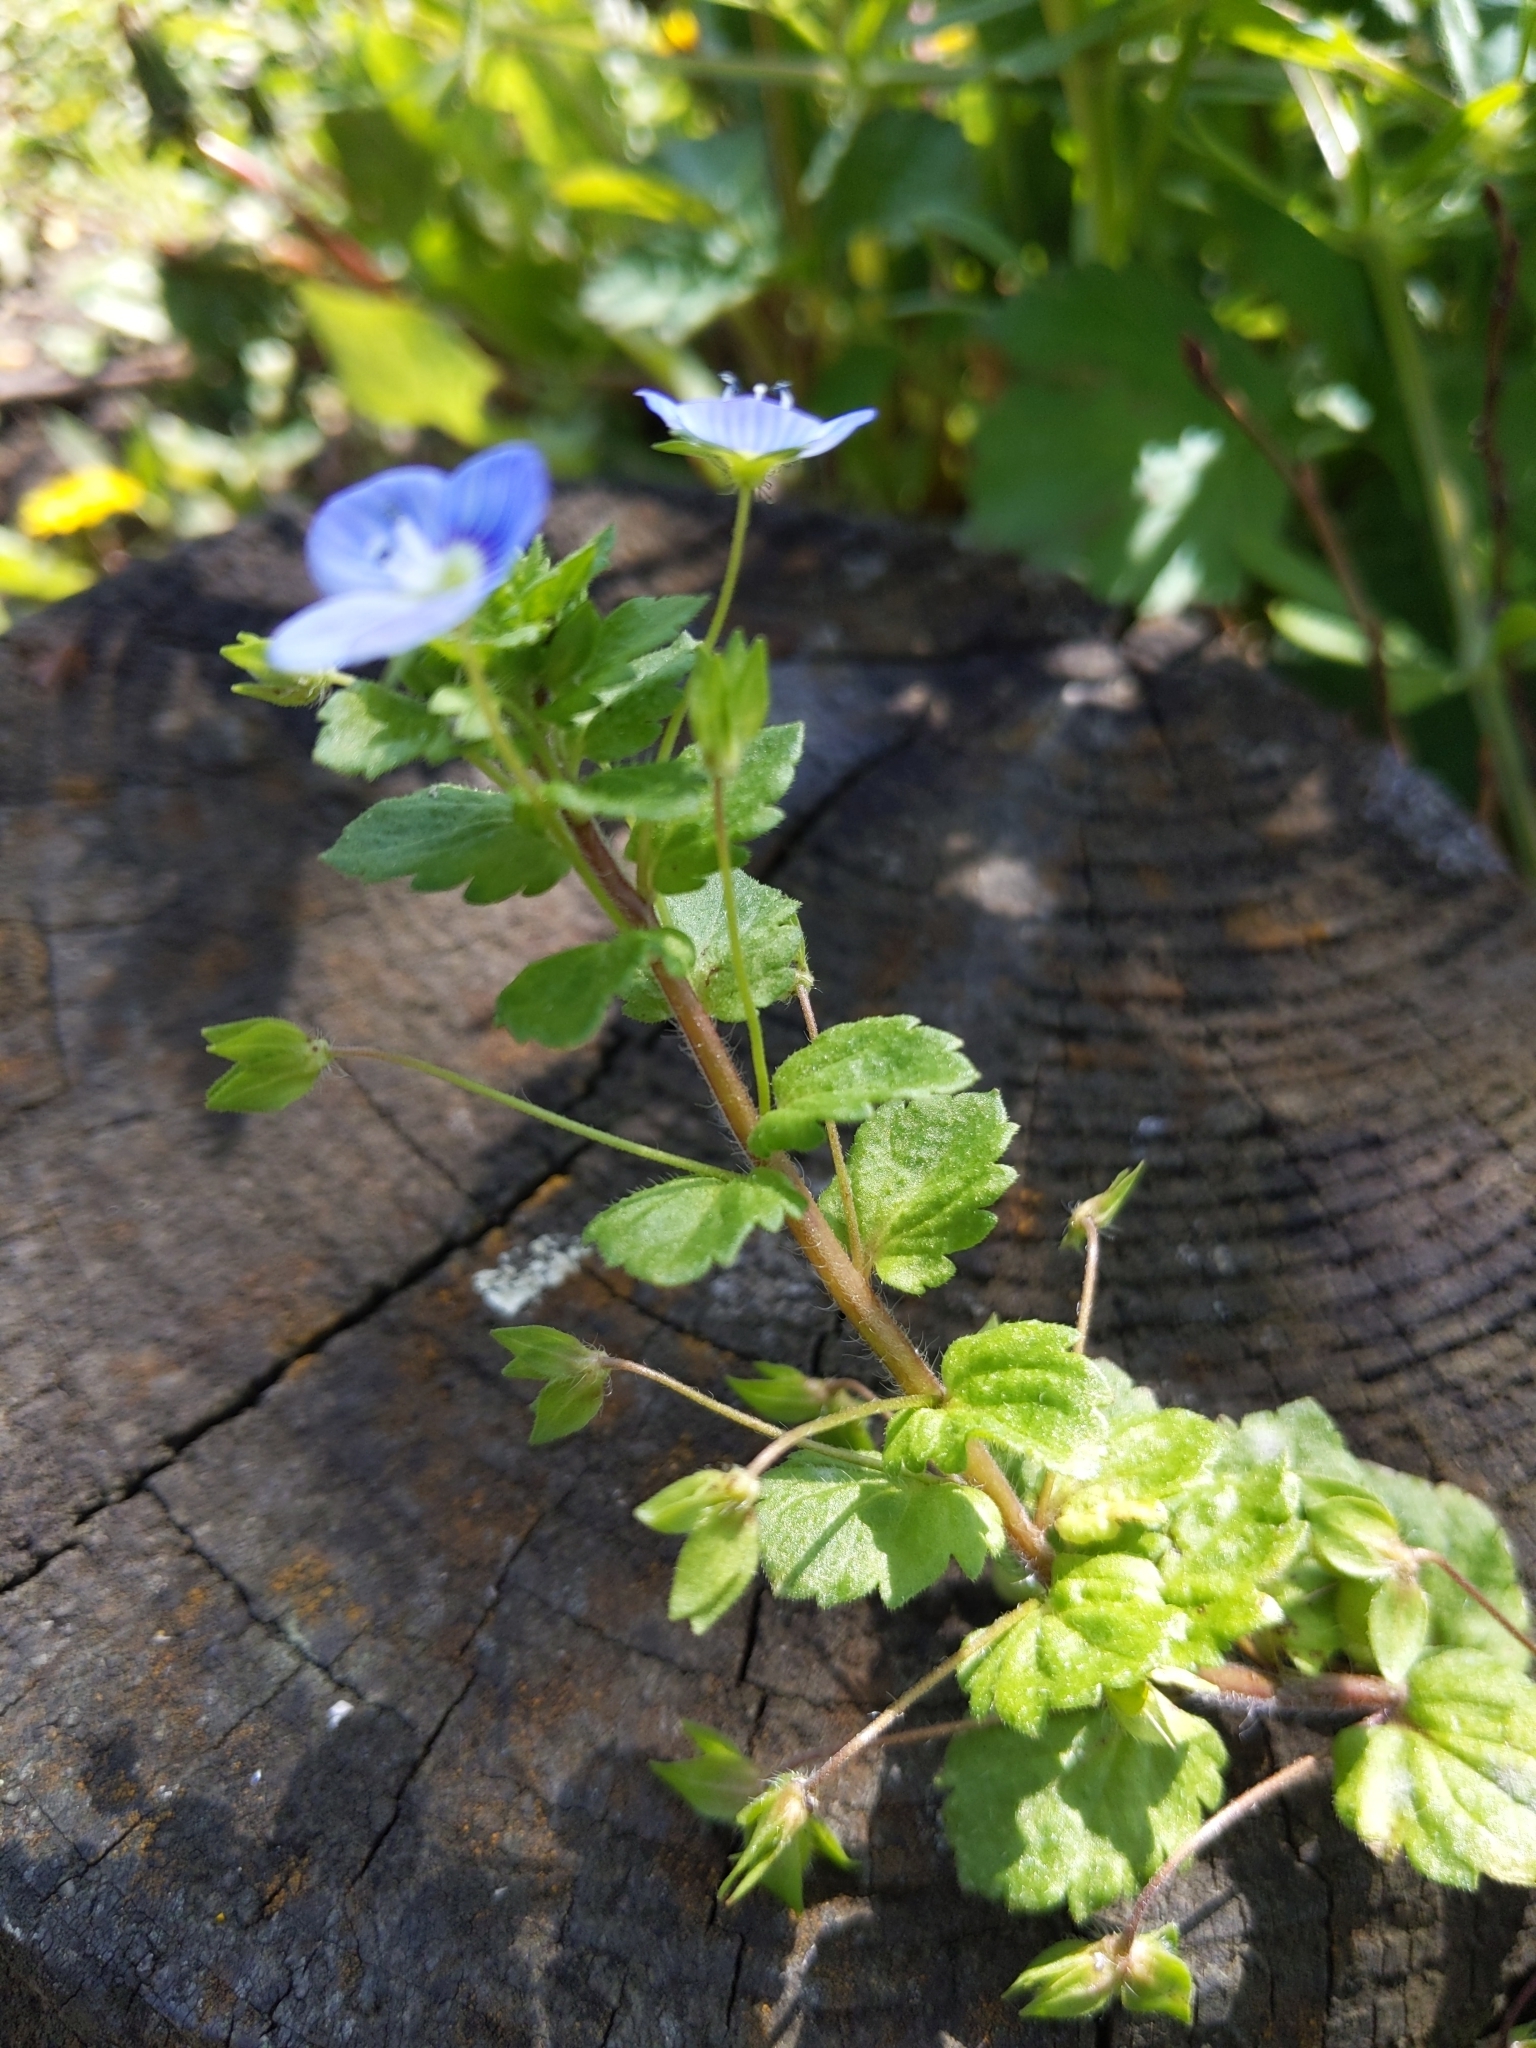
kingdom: Plantae
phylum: Tracheophyta
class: Magnoliopsida
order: Lamiales
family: Plantaginaceae
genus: Veronica
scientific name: Veronica persica
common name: Common field-speedwell
